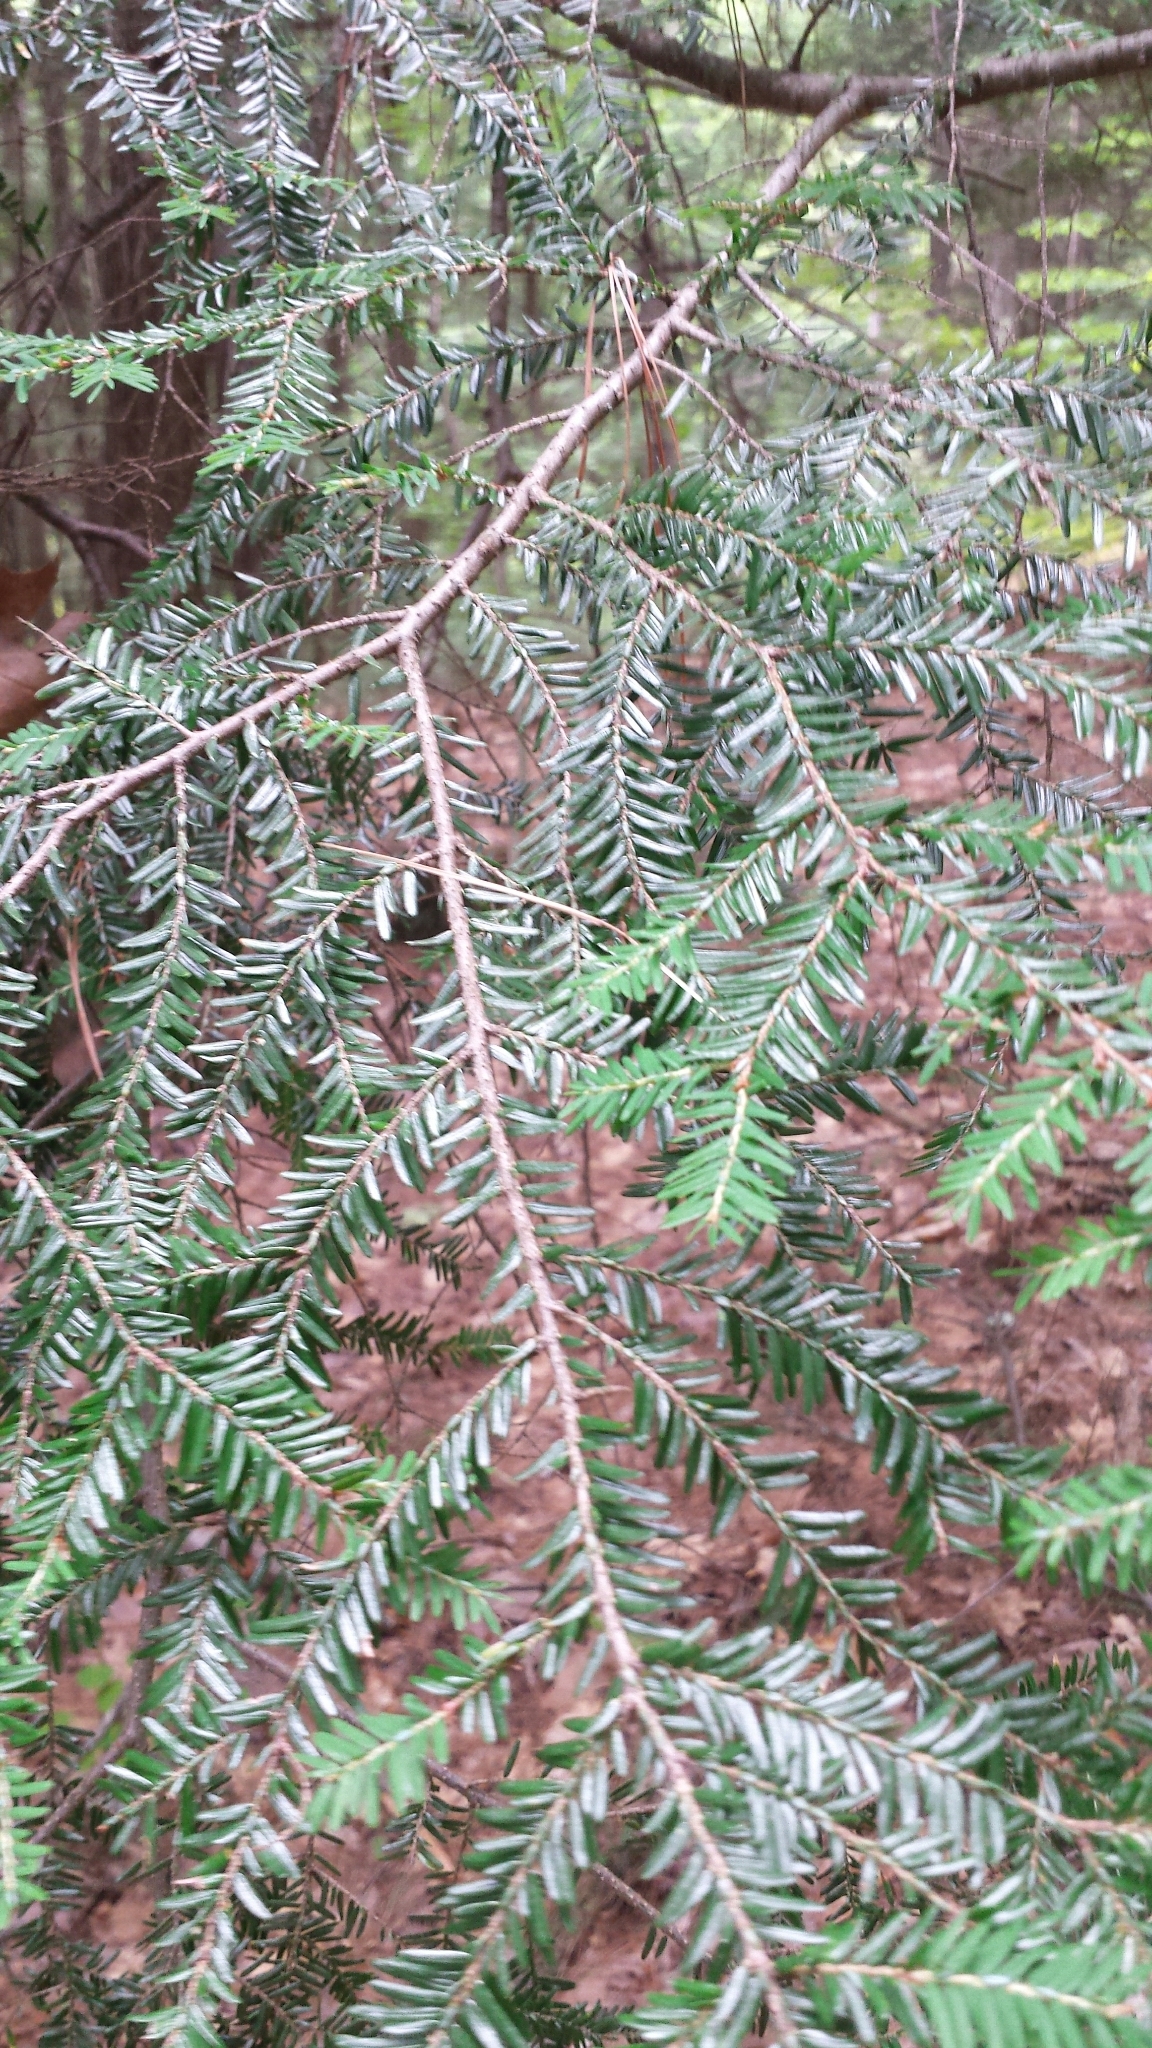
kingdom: Plantae
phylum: Tracheophyta
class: Pinopsida
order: Pinales
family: Pinaceae
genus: Tsuga
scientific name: Tsuga canadensis
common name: Eastern hemlock
